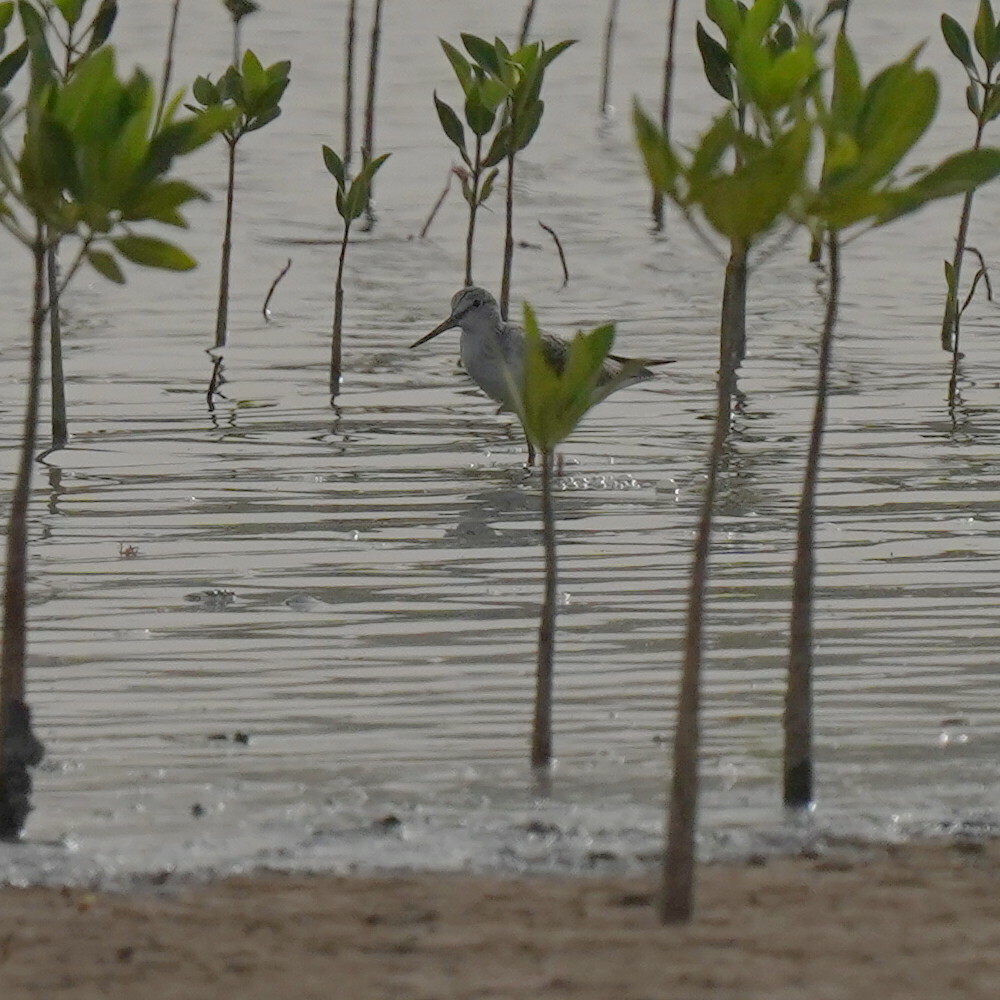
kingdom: Animalia
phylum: Chordata
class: Aves
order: Charadriiformes
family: Scolopacidae
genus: Tringa
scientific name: Tringa stagnatilis
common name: Marsh sandpiper
